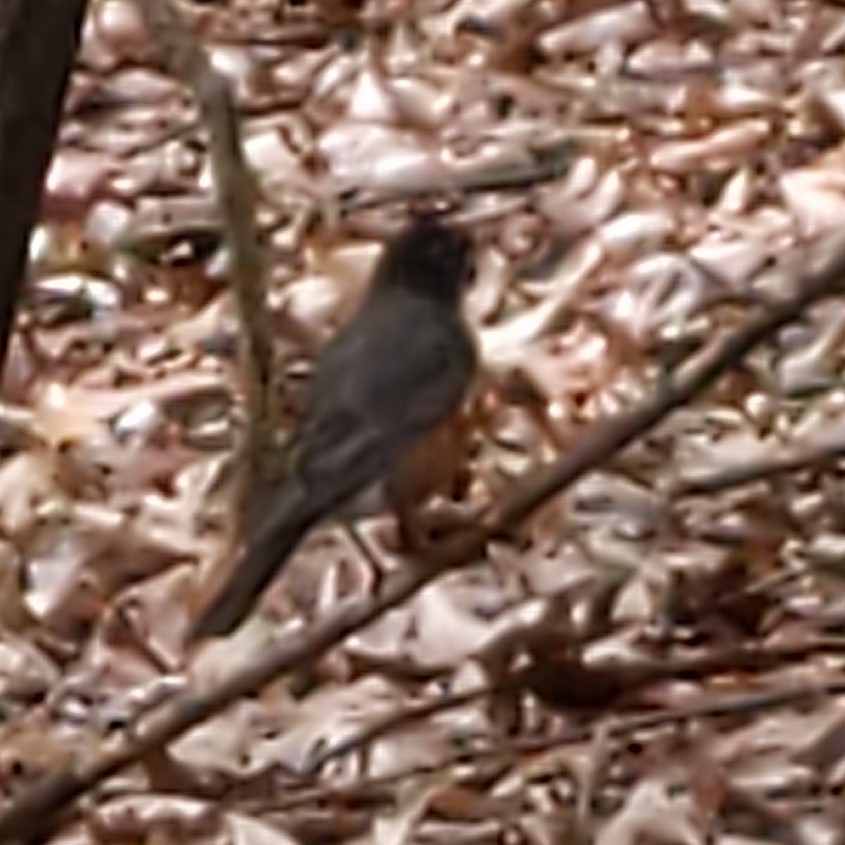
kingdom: Animalia
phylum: Chordata
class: Aves
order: Passeriformes
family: Turdidae
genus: Turdus
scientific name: Turdus migratorius
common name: American robin
